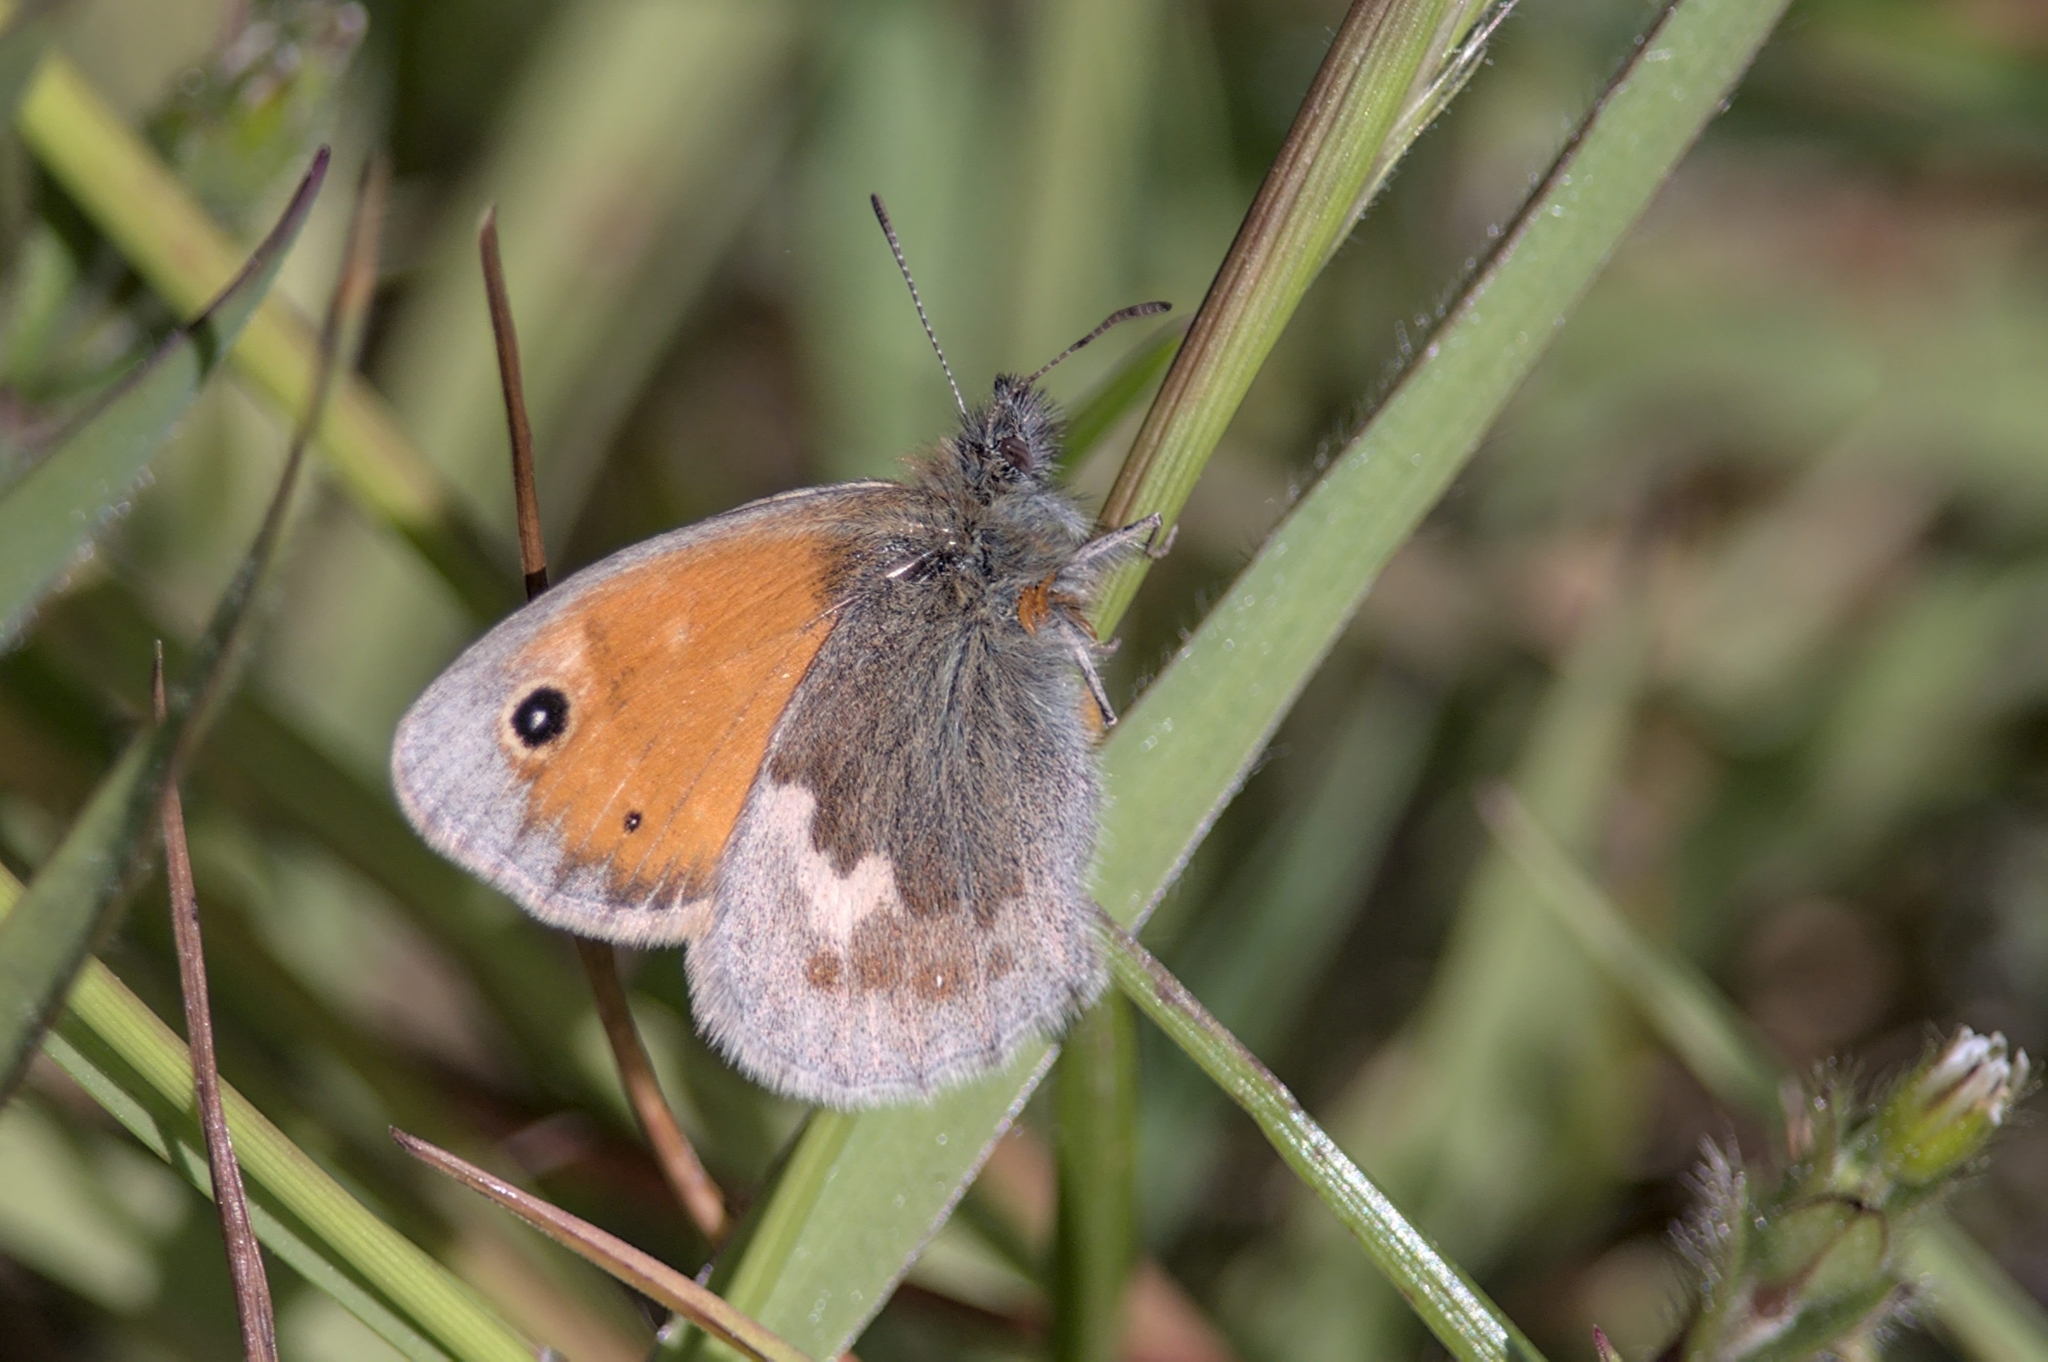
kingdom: Animalia
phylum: Arthropoda
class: Insecta
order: Lepidoptera
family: Nymphalidae
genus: Coenonympha
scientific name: Coenonympha pamphilus
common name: Small heath
